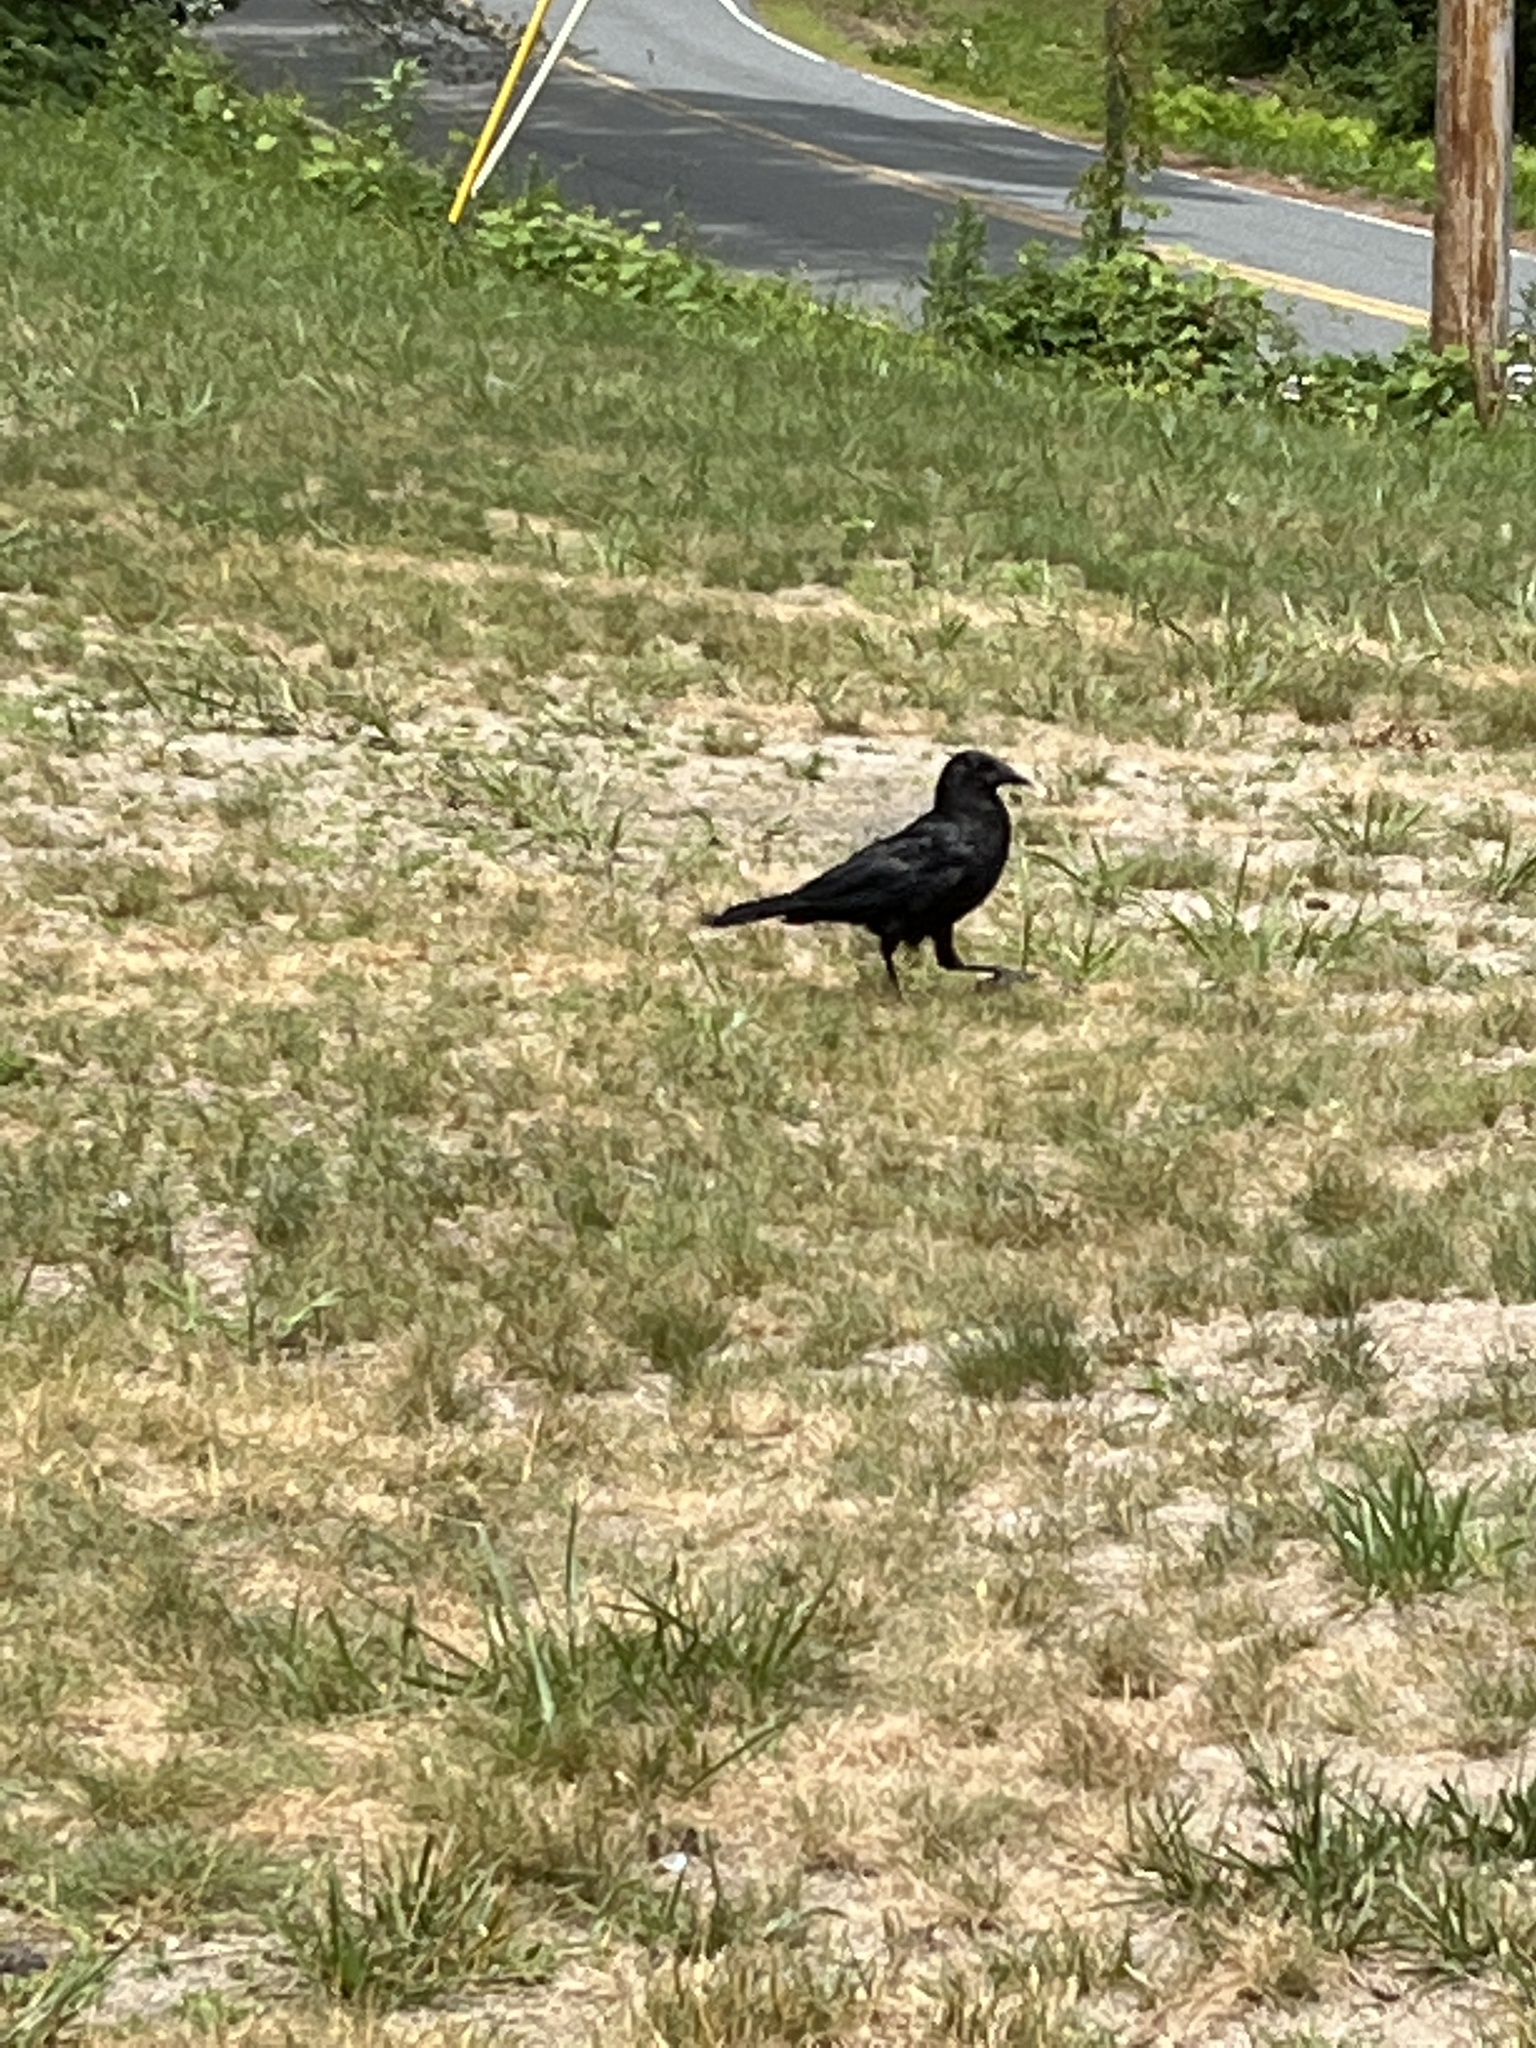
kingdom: Animalia
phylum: Chordata
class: Aves
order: Passeriformes
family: Corvidae
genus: Corvus
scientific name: Corvus brachyrhynchos
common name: American crow
